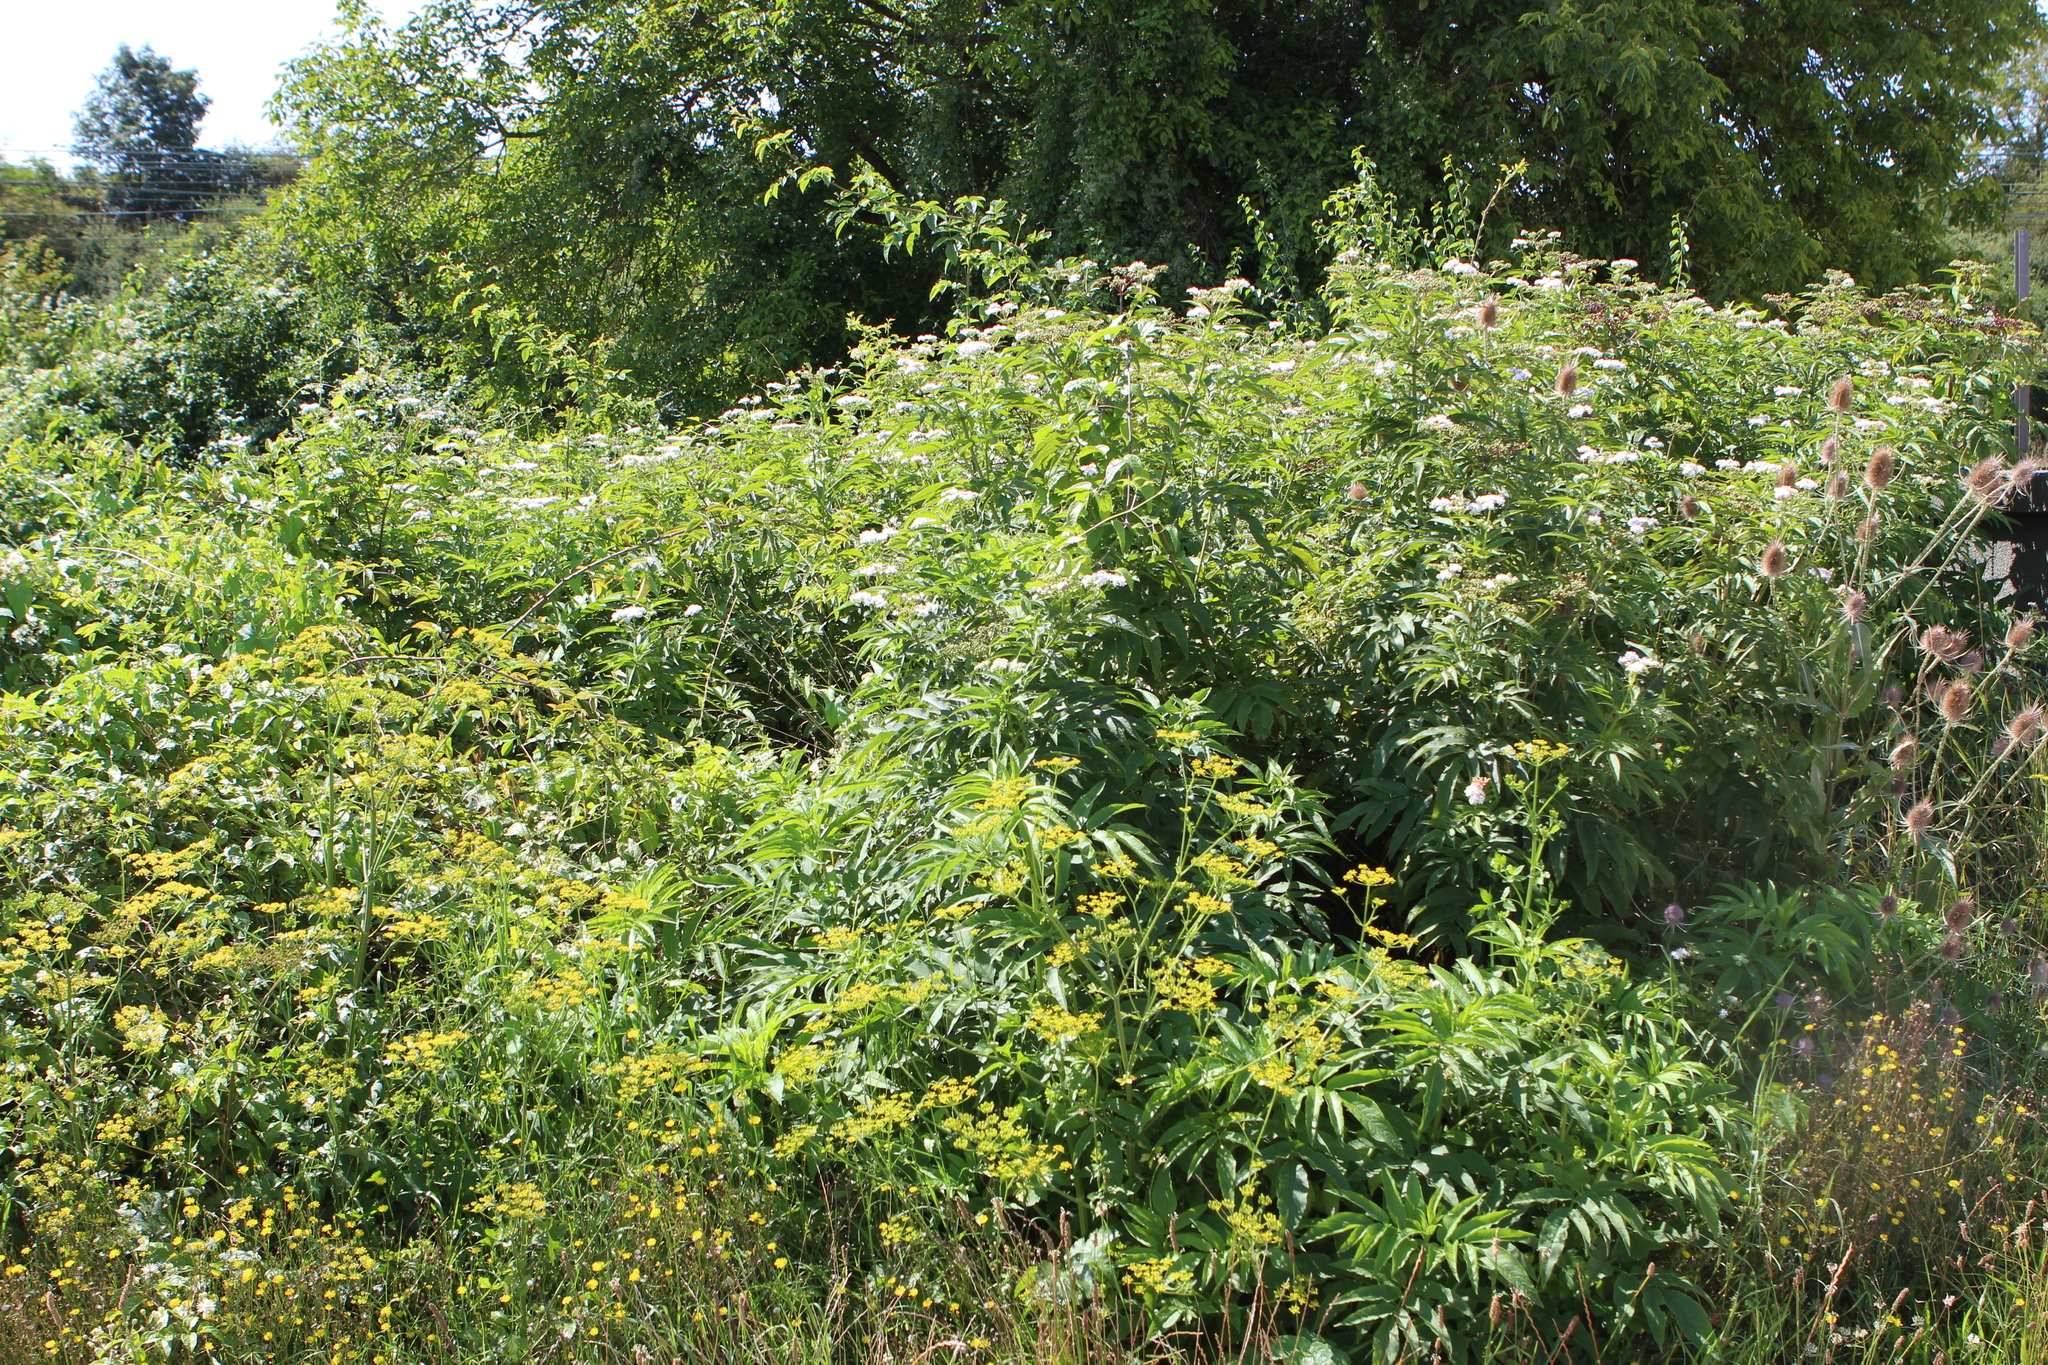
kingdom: Plantae
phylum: Tracheophyta
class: Magnoliopsida
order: Dipsacales
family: Viburnaceae
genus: Sambucus
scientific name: Sambucus ebulus
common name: Dwarf elder
